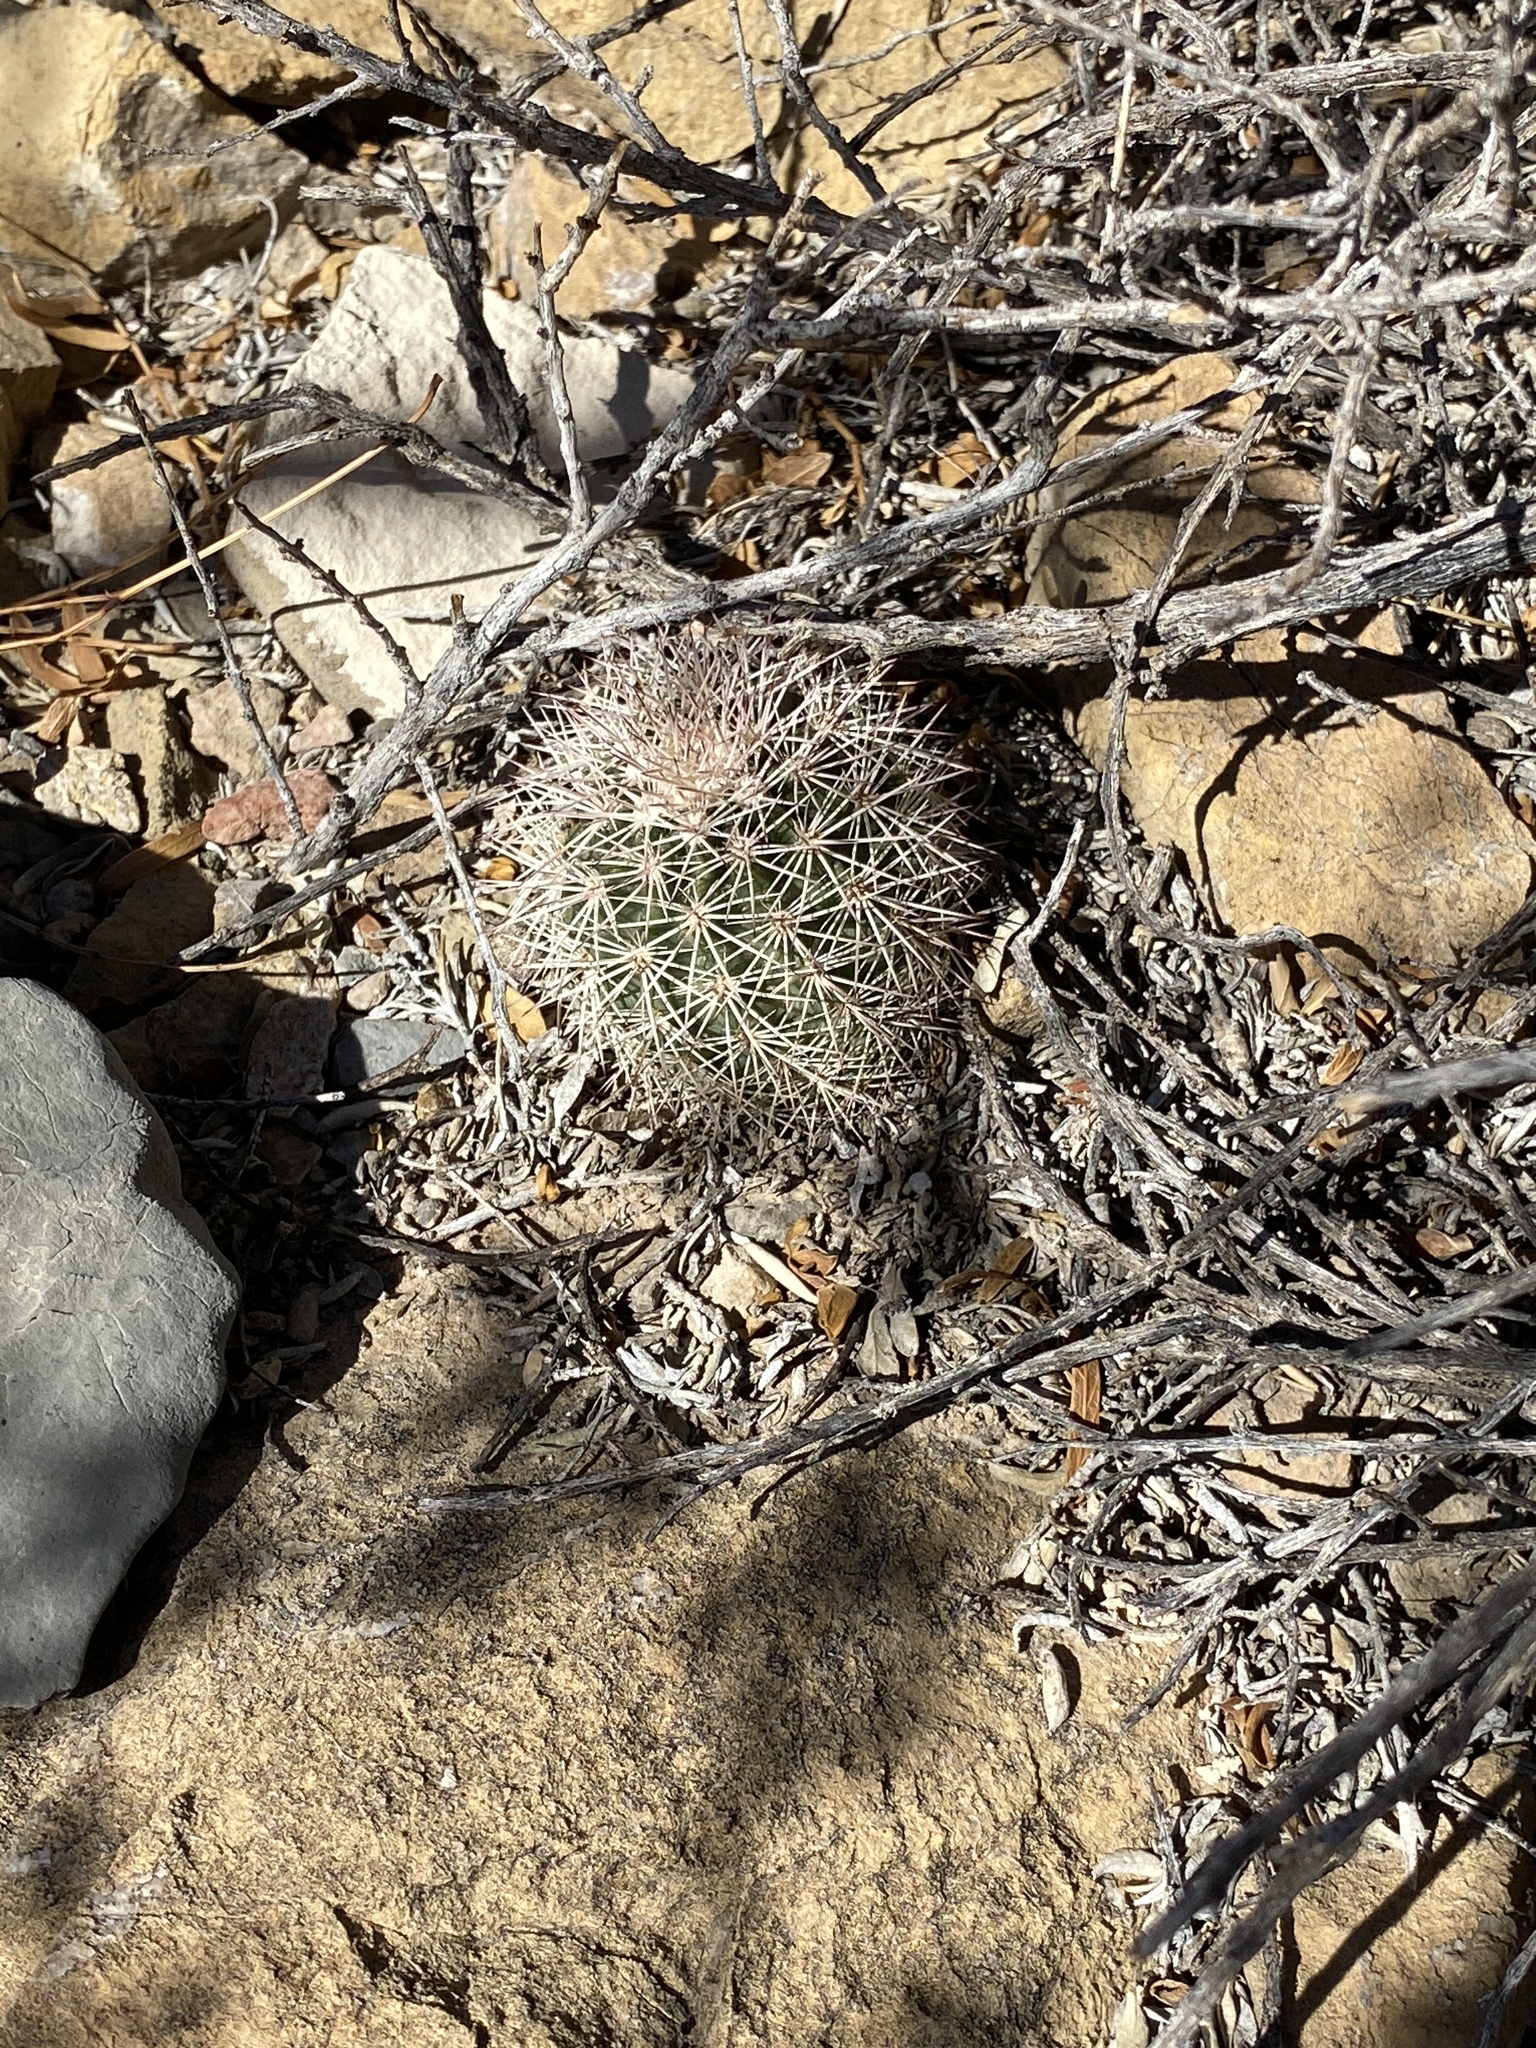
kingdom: Plantae
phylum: Tracheophyta
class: Magnoliopsida
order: Caryophyllales
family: Cactaceae
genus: Echinocereus
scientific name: Echinocereus dasyacanthus
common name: Spiny hedgehog cactus
